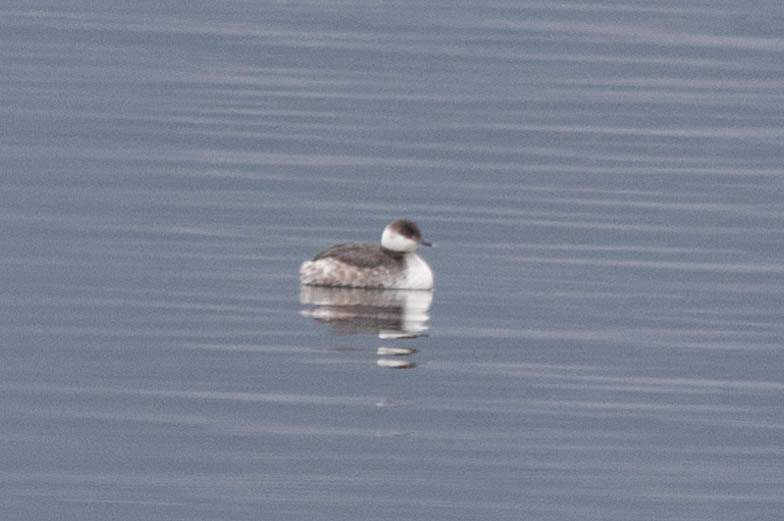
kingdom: Animalia
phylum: Chordata
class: Aves
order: Podicipediformes
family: Podicipedidae
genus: Podiceps
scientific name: Podiceps auritus
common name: Horned grebe
